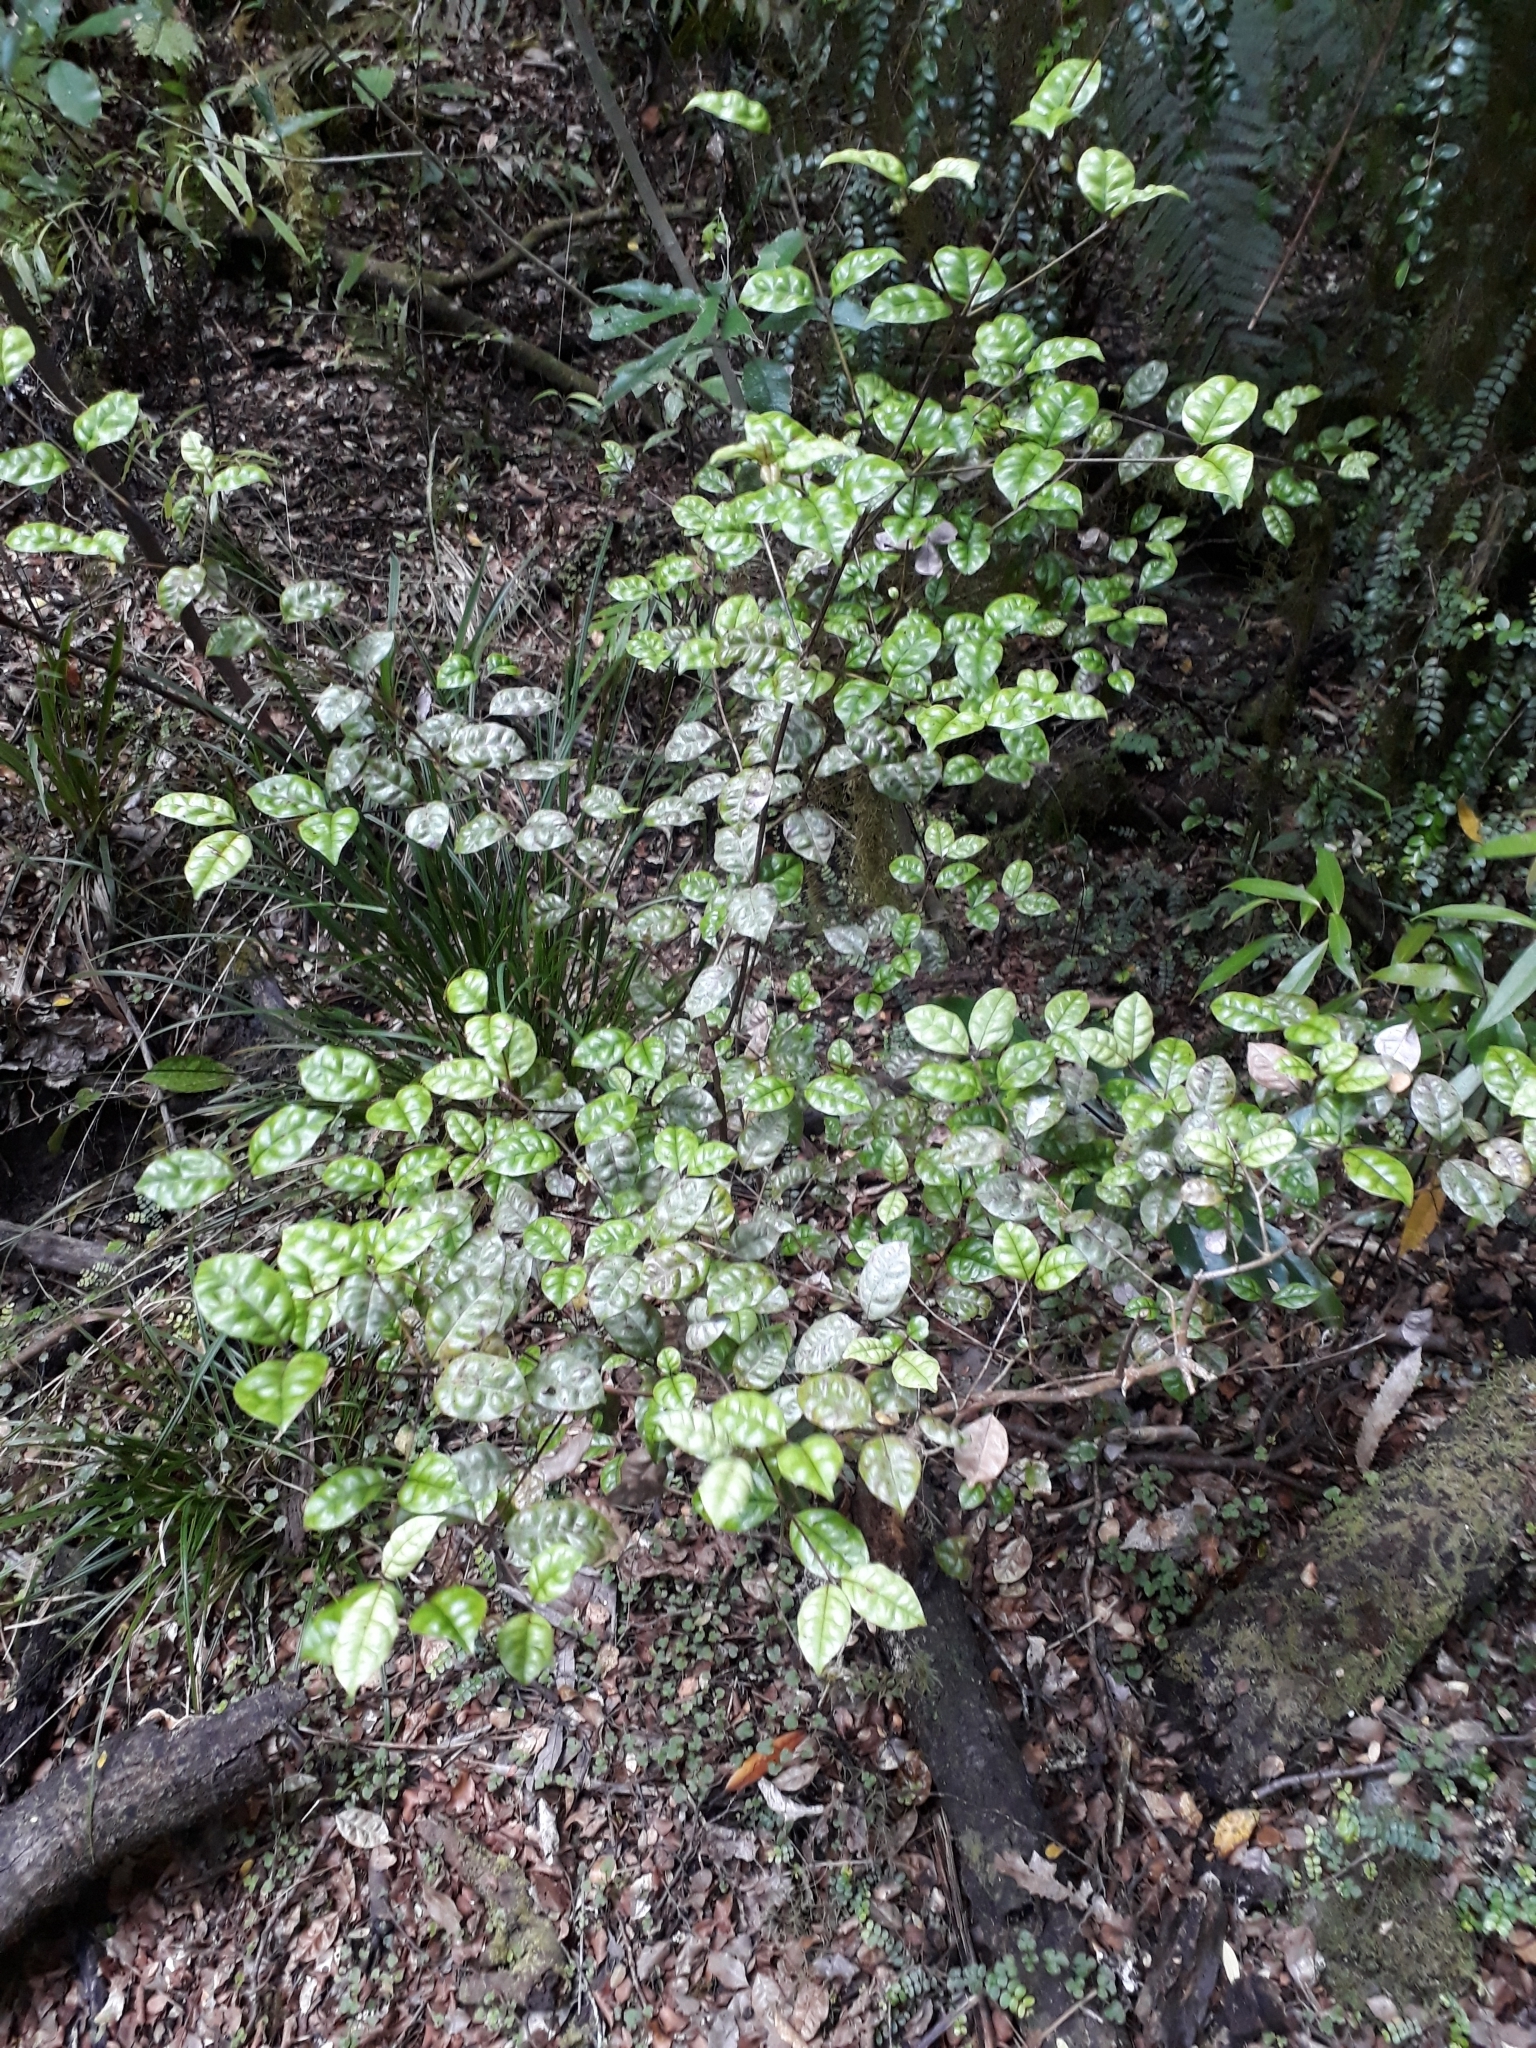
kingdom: Plantae
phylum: Tracheophyta
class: Magnoliopsida
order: Myrtales
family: Myrtaceae
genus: Lophomyrtus
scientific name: Lophomyrtus bullata
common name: Rama rama
